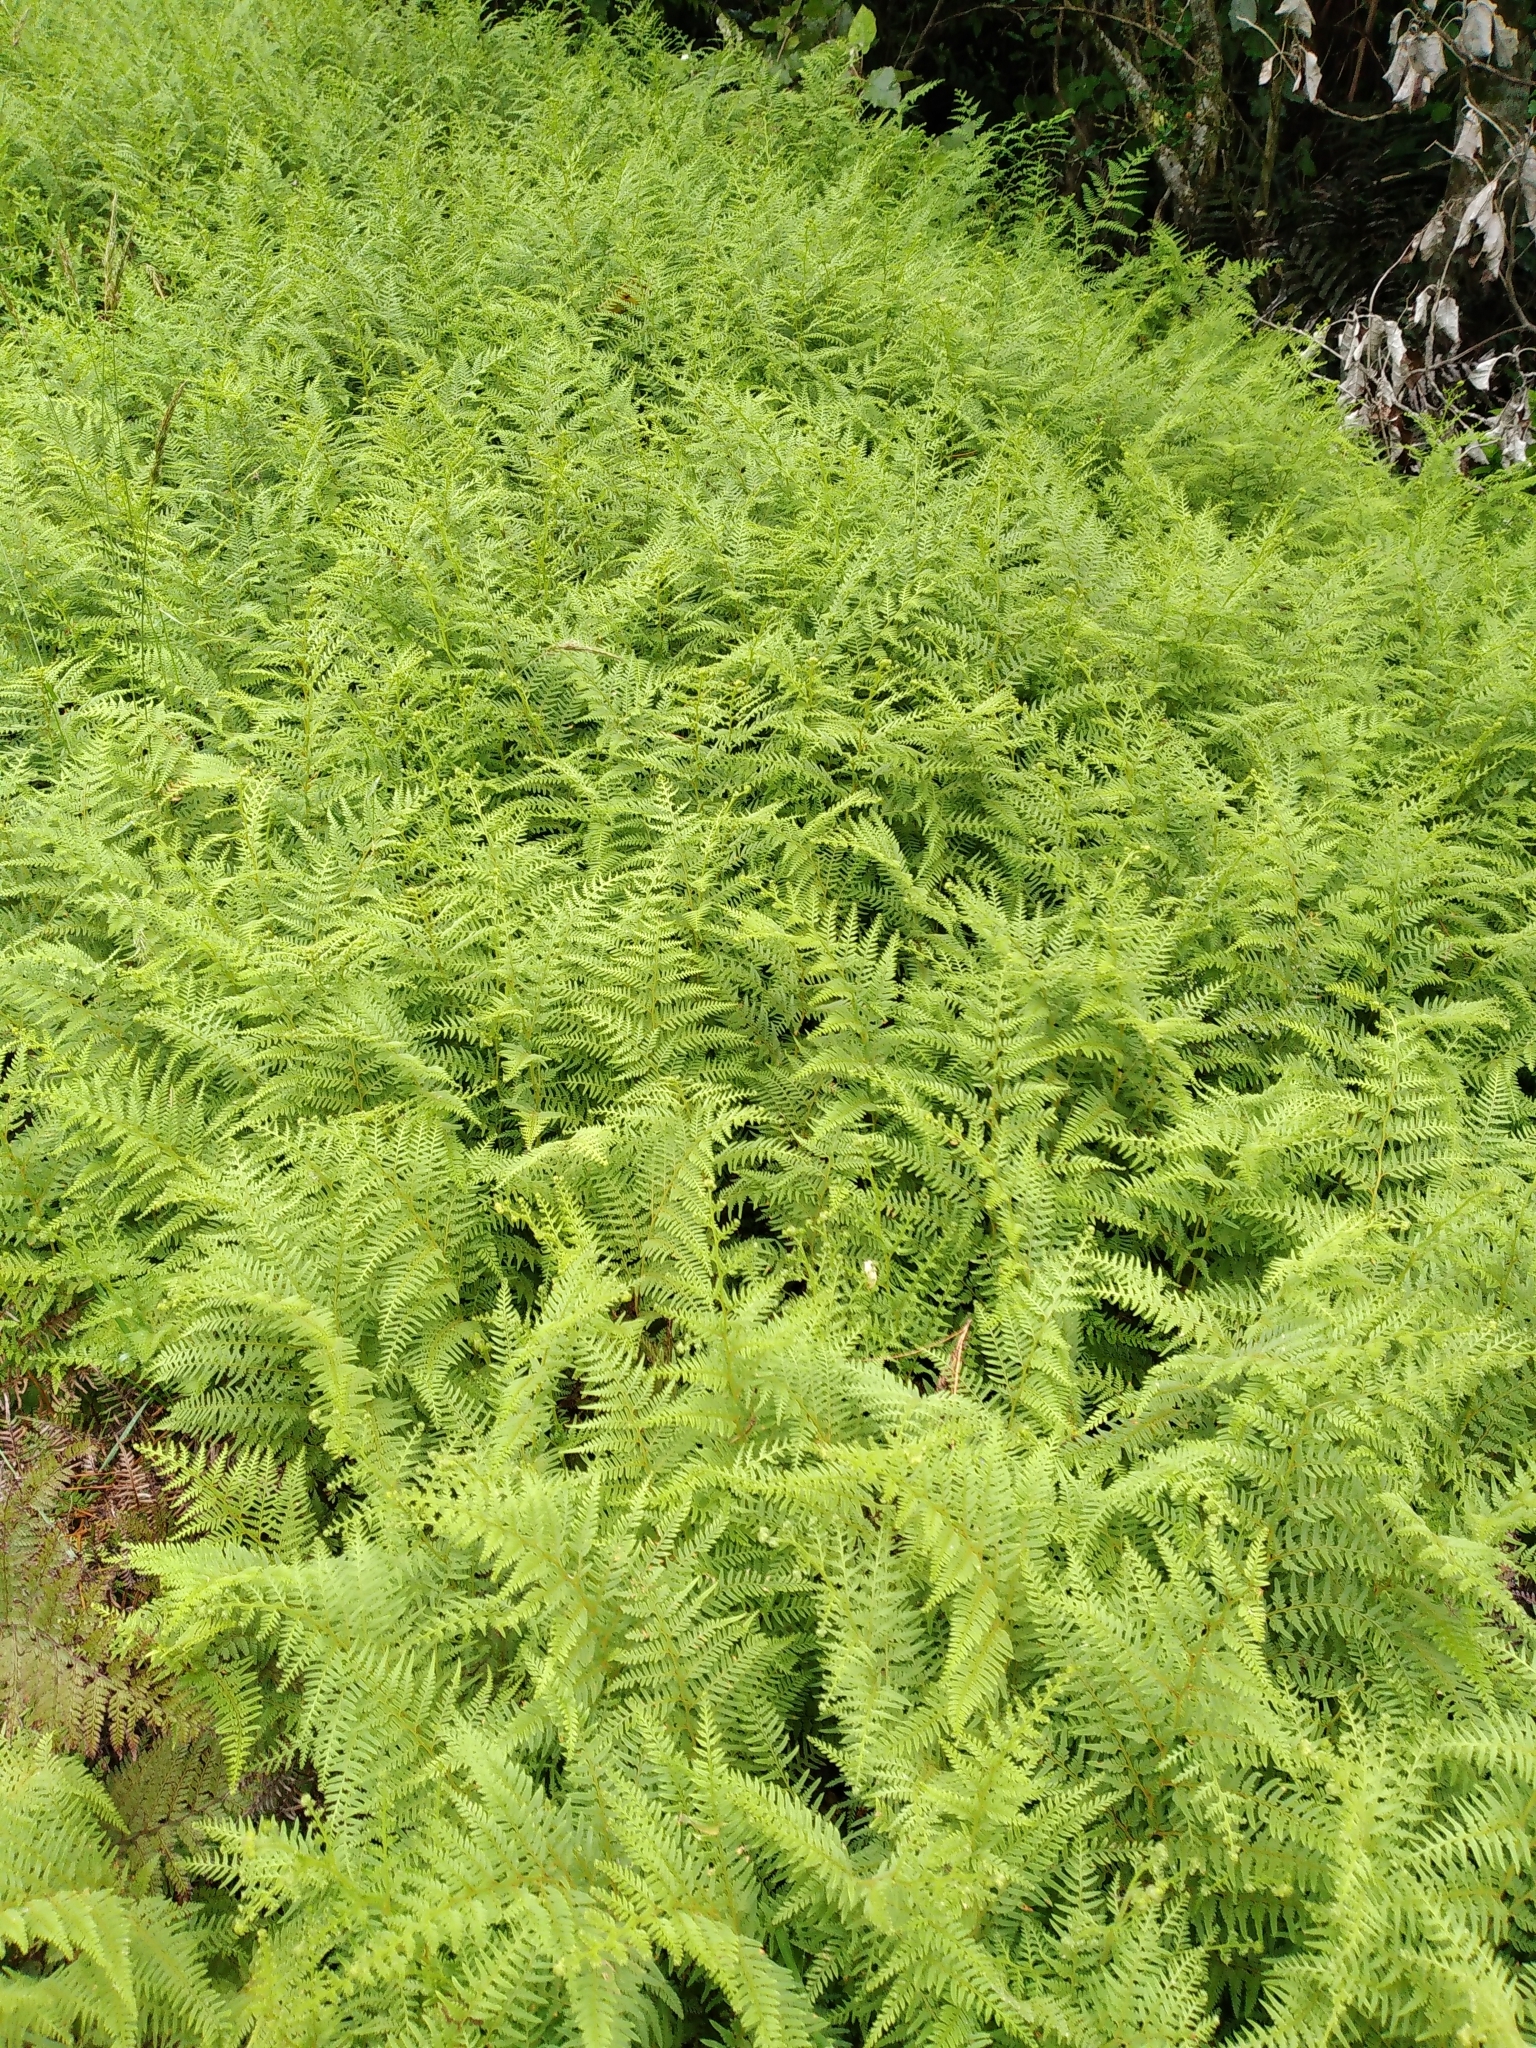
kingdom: Plantae
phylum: Tracheophyta
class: Polypodiopsida
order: Polypodiales
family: Dennstaedtiaceae
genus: Paesia
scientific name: Paesia scaberula
